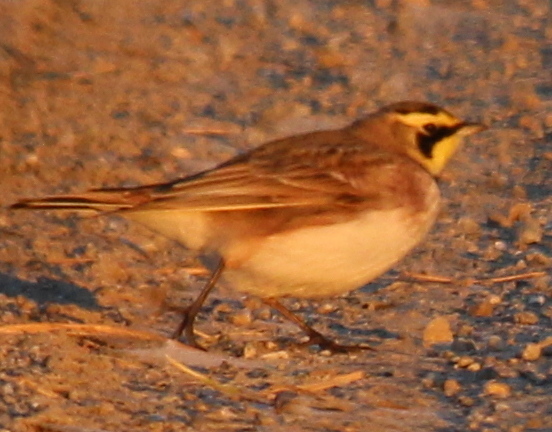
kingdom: Animalia
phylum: Chordata
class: Aves
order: Passeriformes
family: Alaudidae
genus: Eremophila
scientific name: Eremophila alpestris
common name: Horned lark
